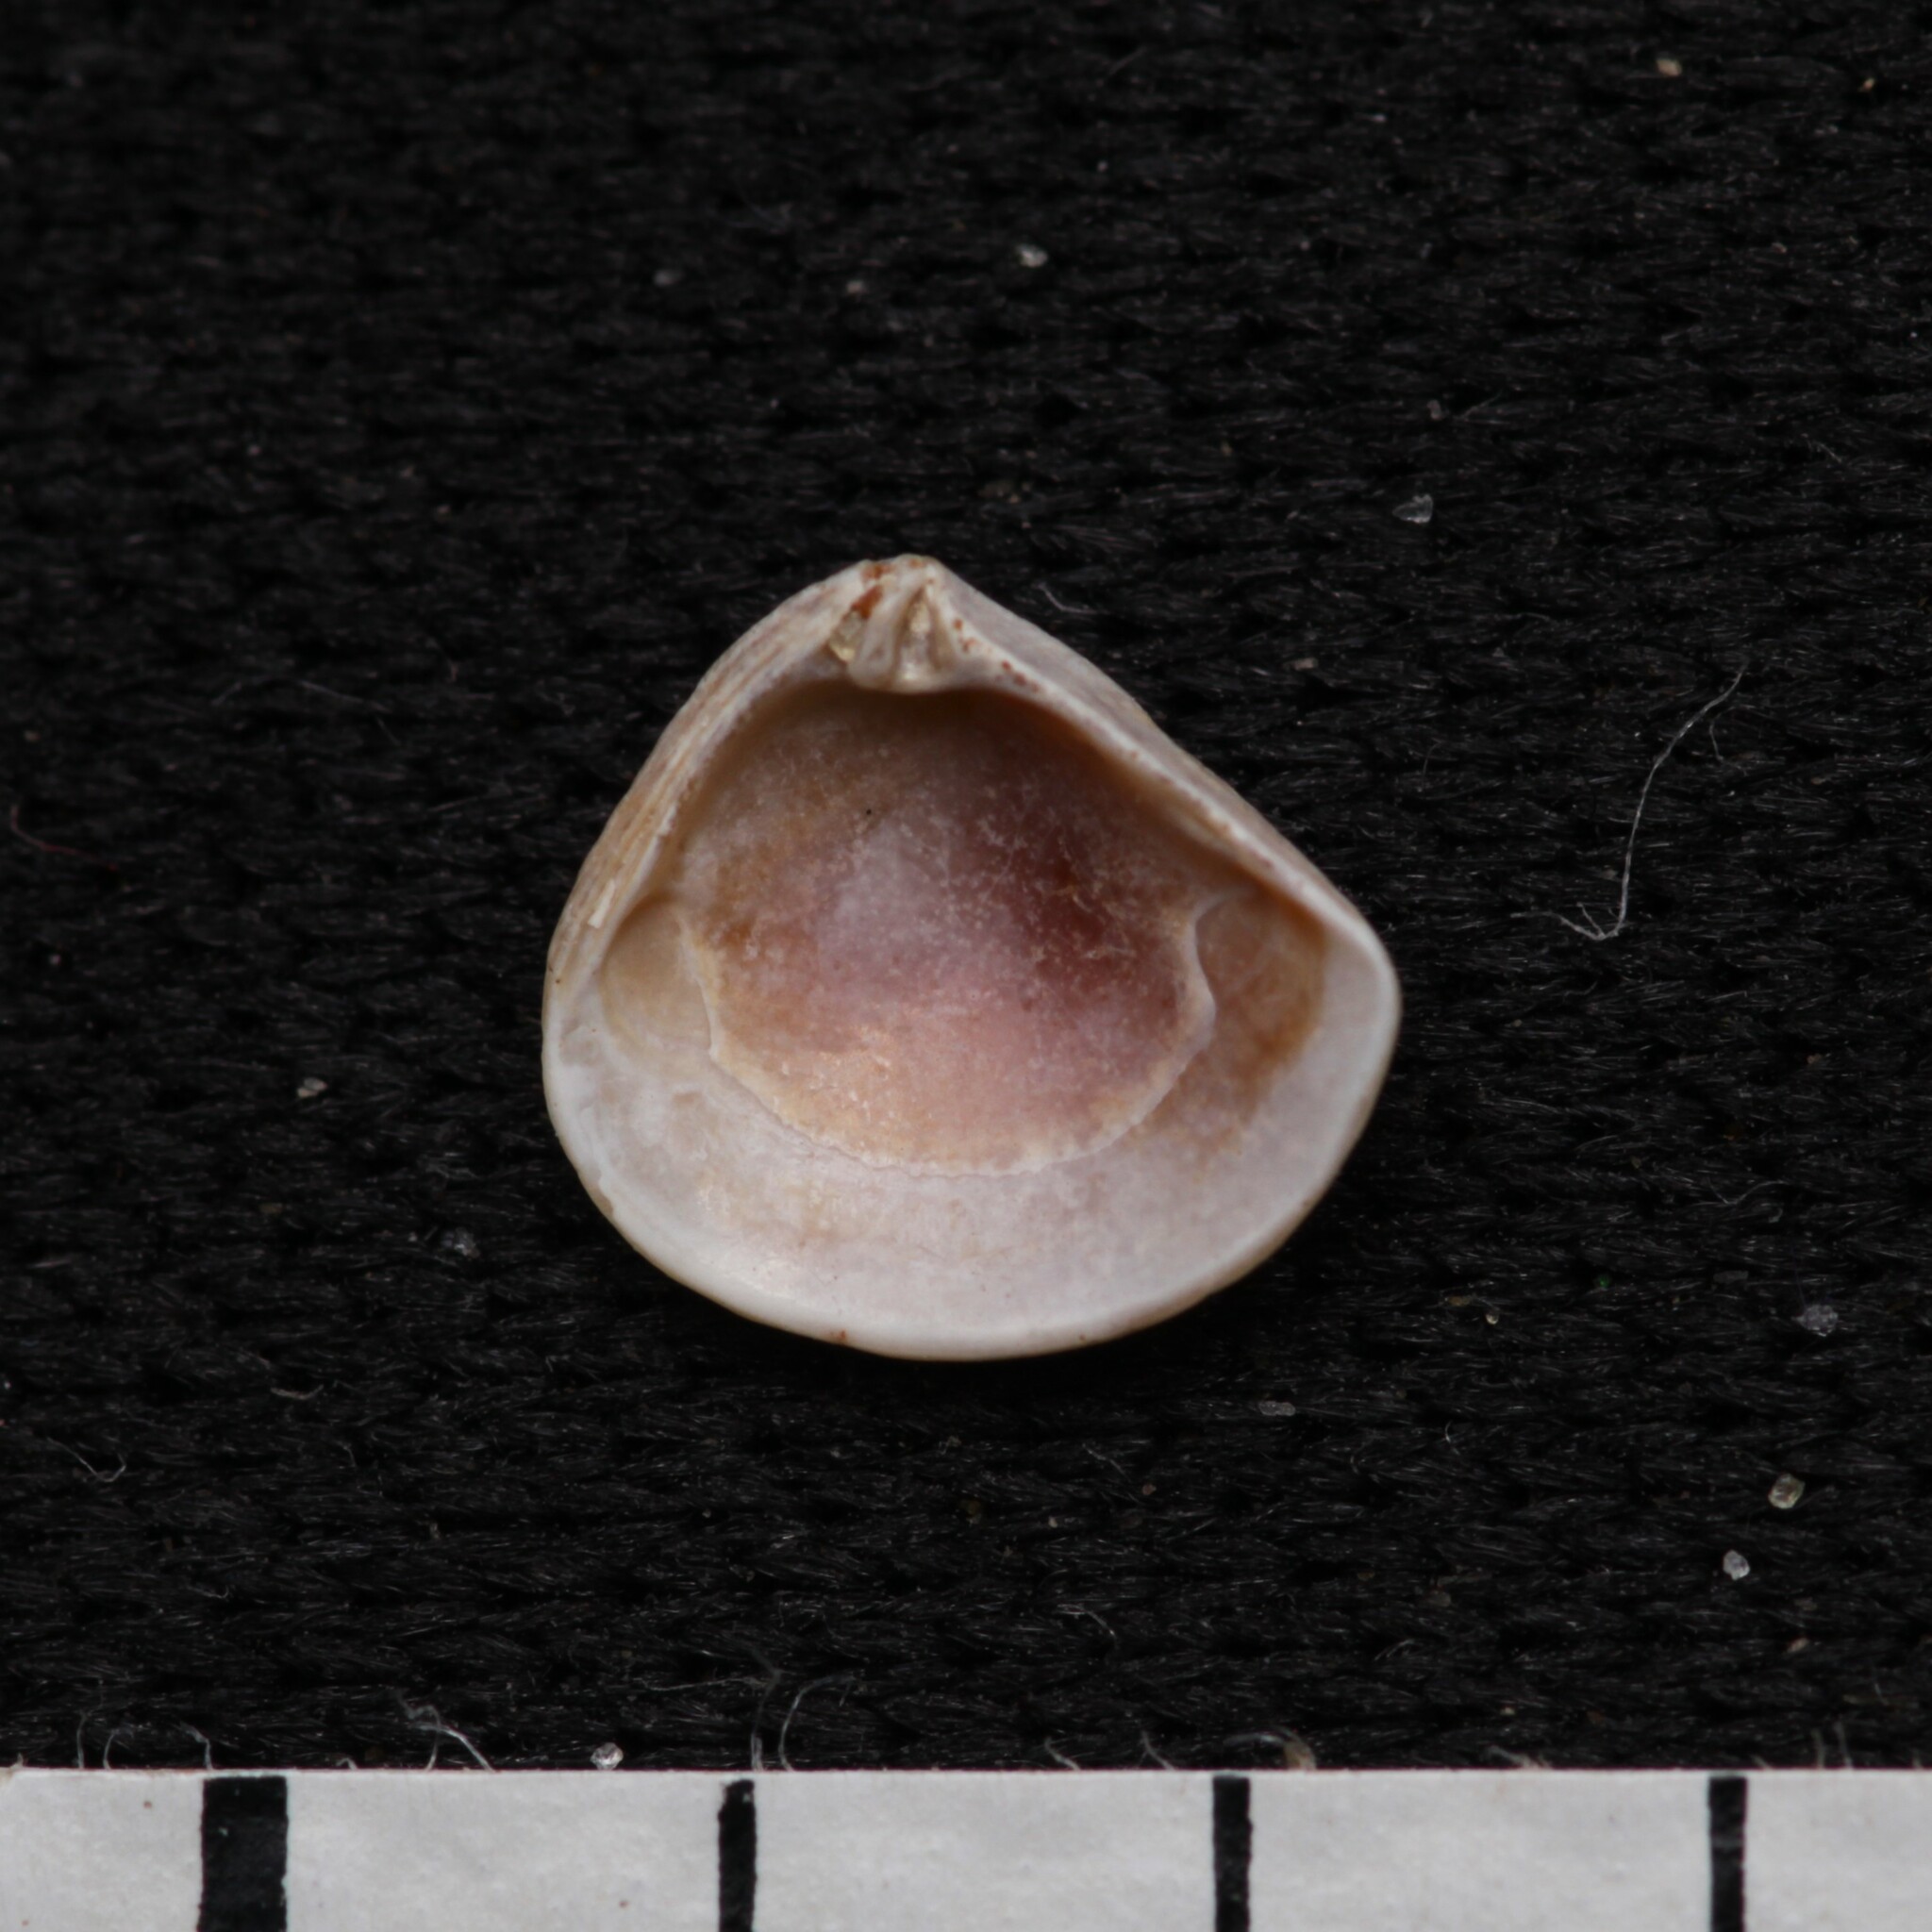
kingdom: Animalia
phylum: Mollusca
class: Bivalvia
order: Carditida
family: Crassatellidae
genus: Crassinella
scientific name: Crassinella lunulata
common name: Lunate crassinella
